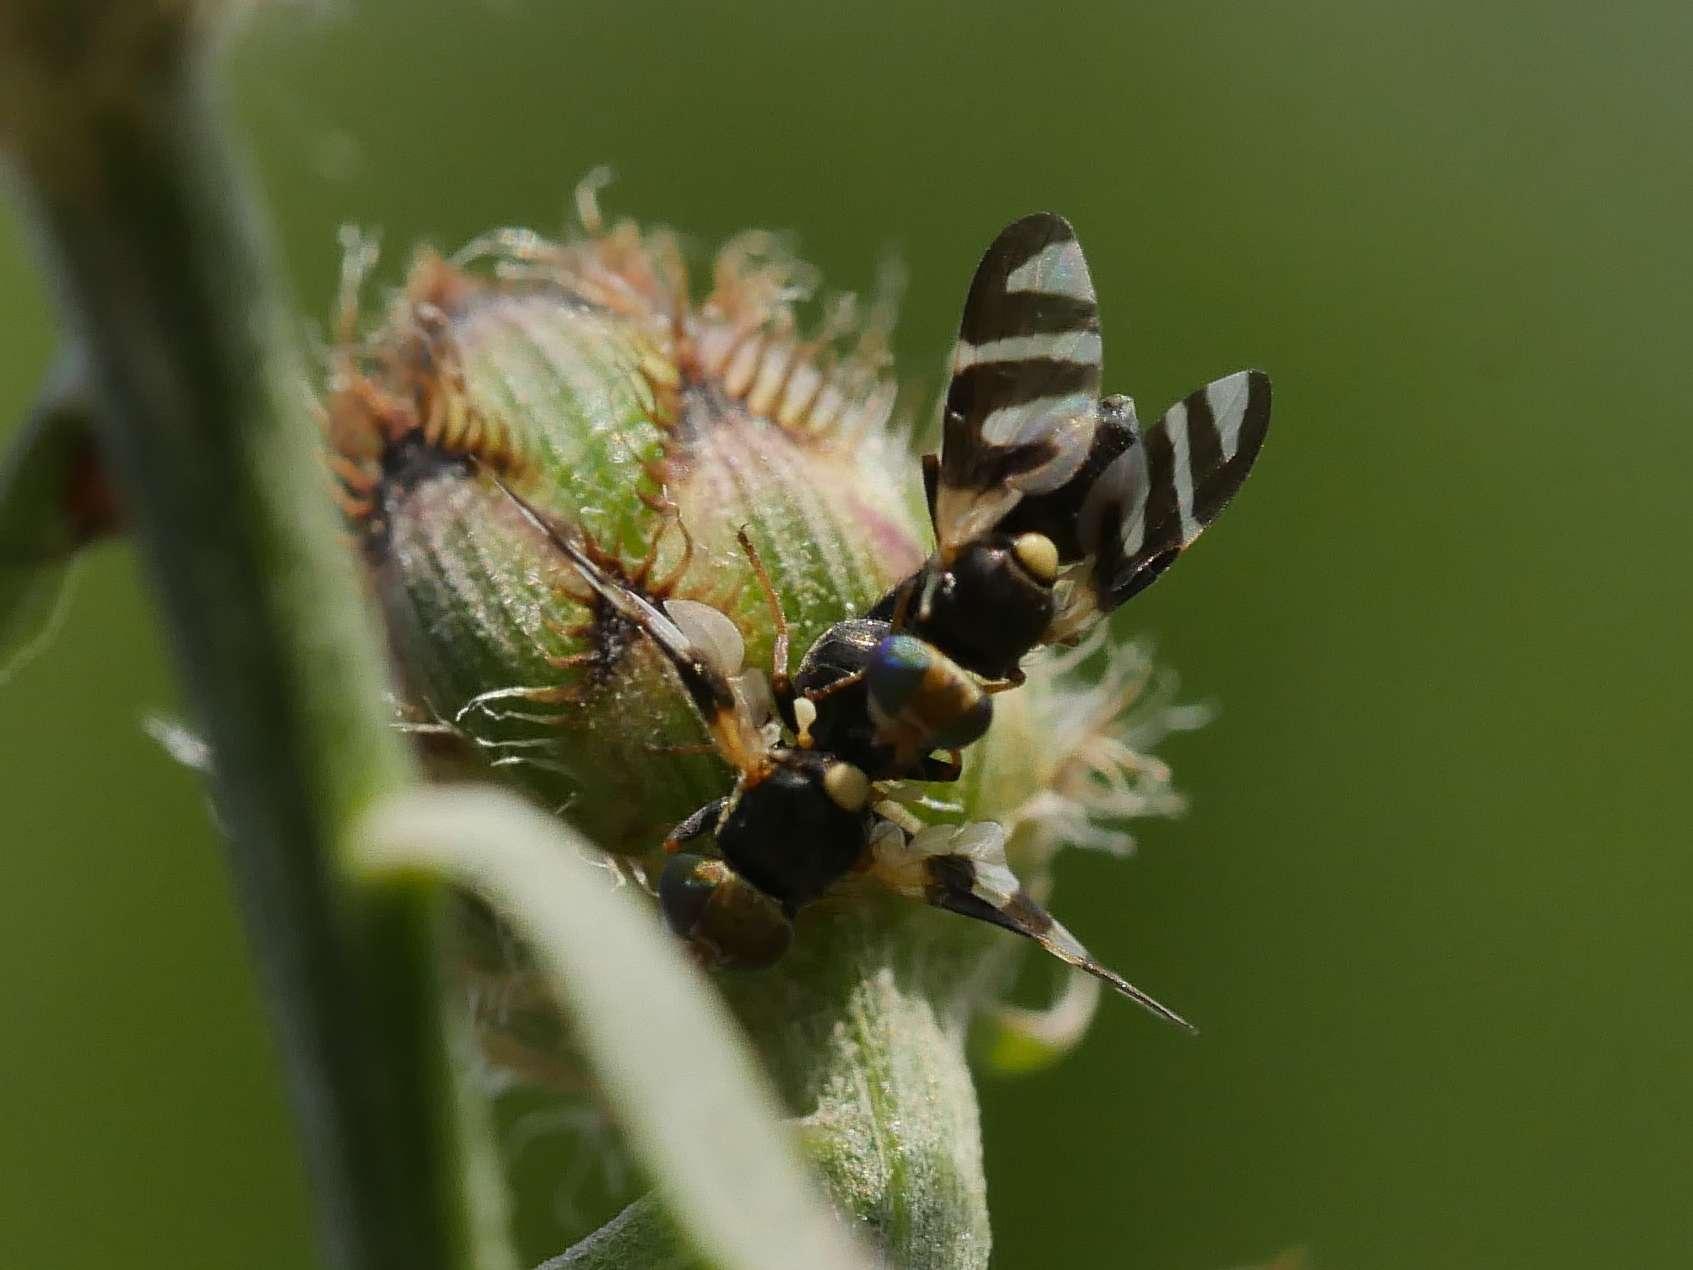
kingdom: Animalia
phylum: Arthropoda
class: Insecta
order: Diptera
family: Tephritidae
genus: Urophora
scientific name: Urophora quadrifasciata
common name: Knapweed seedhead fly
